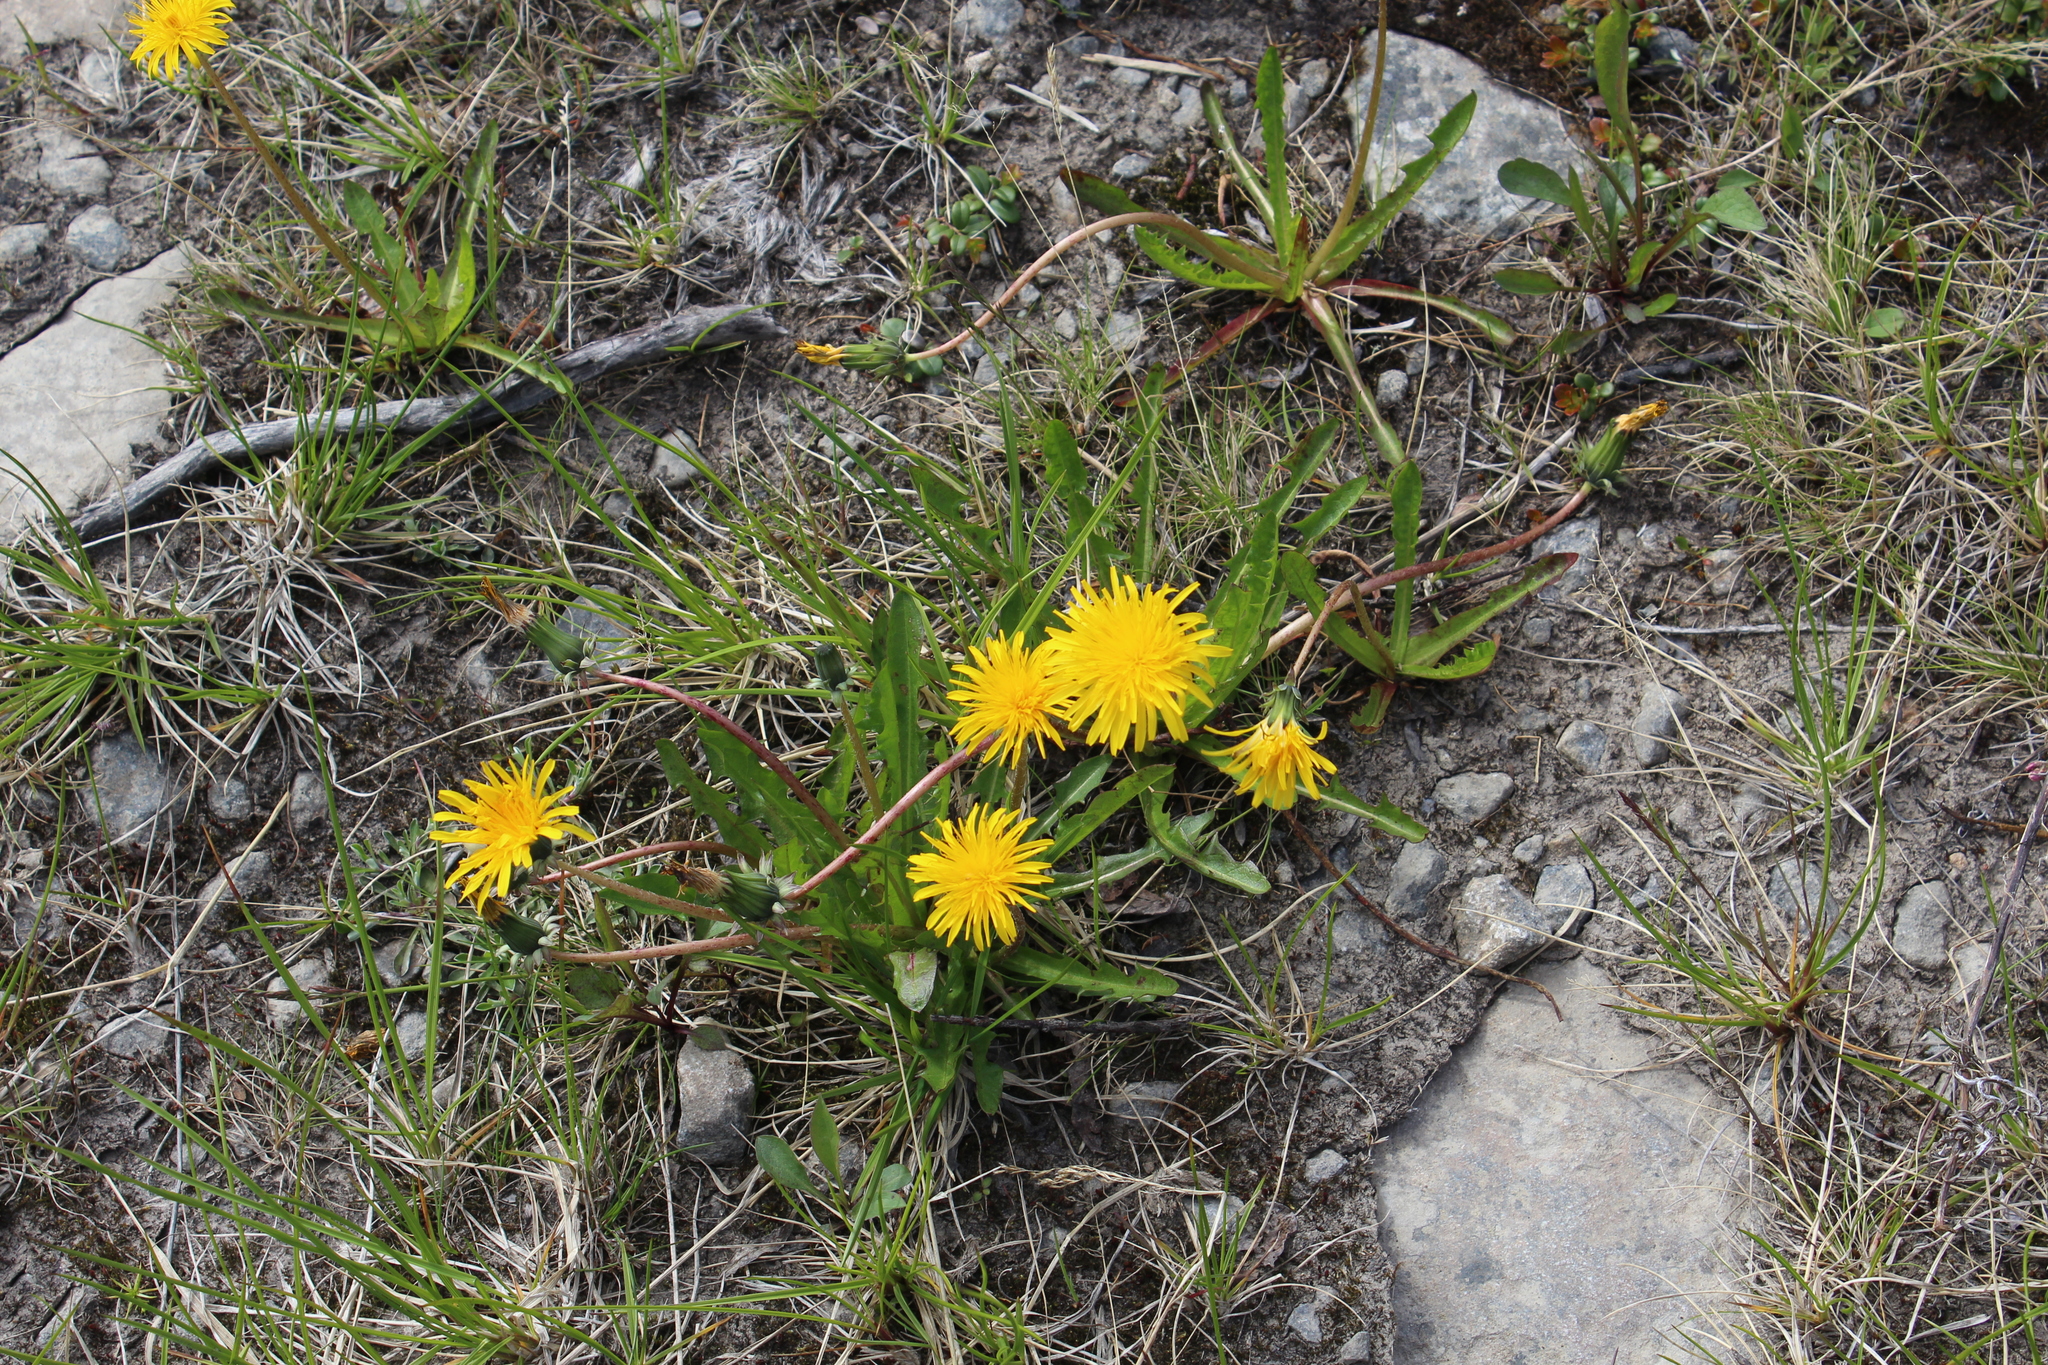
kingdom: Plantae
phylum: Tracheophyta
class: Magnoliopsida
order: Asterales
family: Asteraceae
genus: Taraxacum
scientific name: Taraxacum croceum
